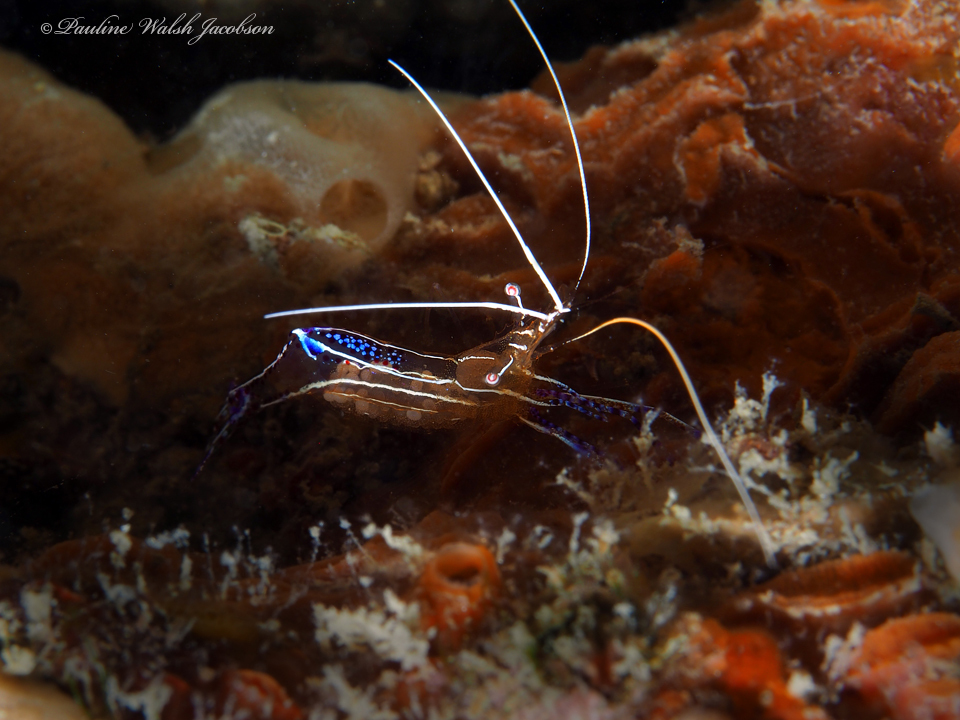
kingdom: Animalia
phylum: Arthropoda
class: Malacostraca
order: Decapoda
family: Palaemonidae
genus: Ancylomenes
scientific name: Ancylomenes pedersoni
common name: Pederson's cleaning shrimp
